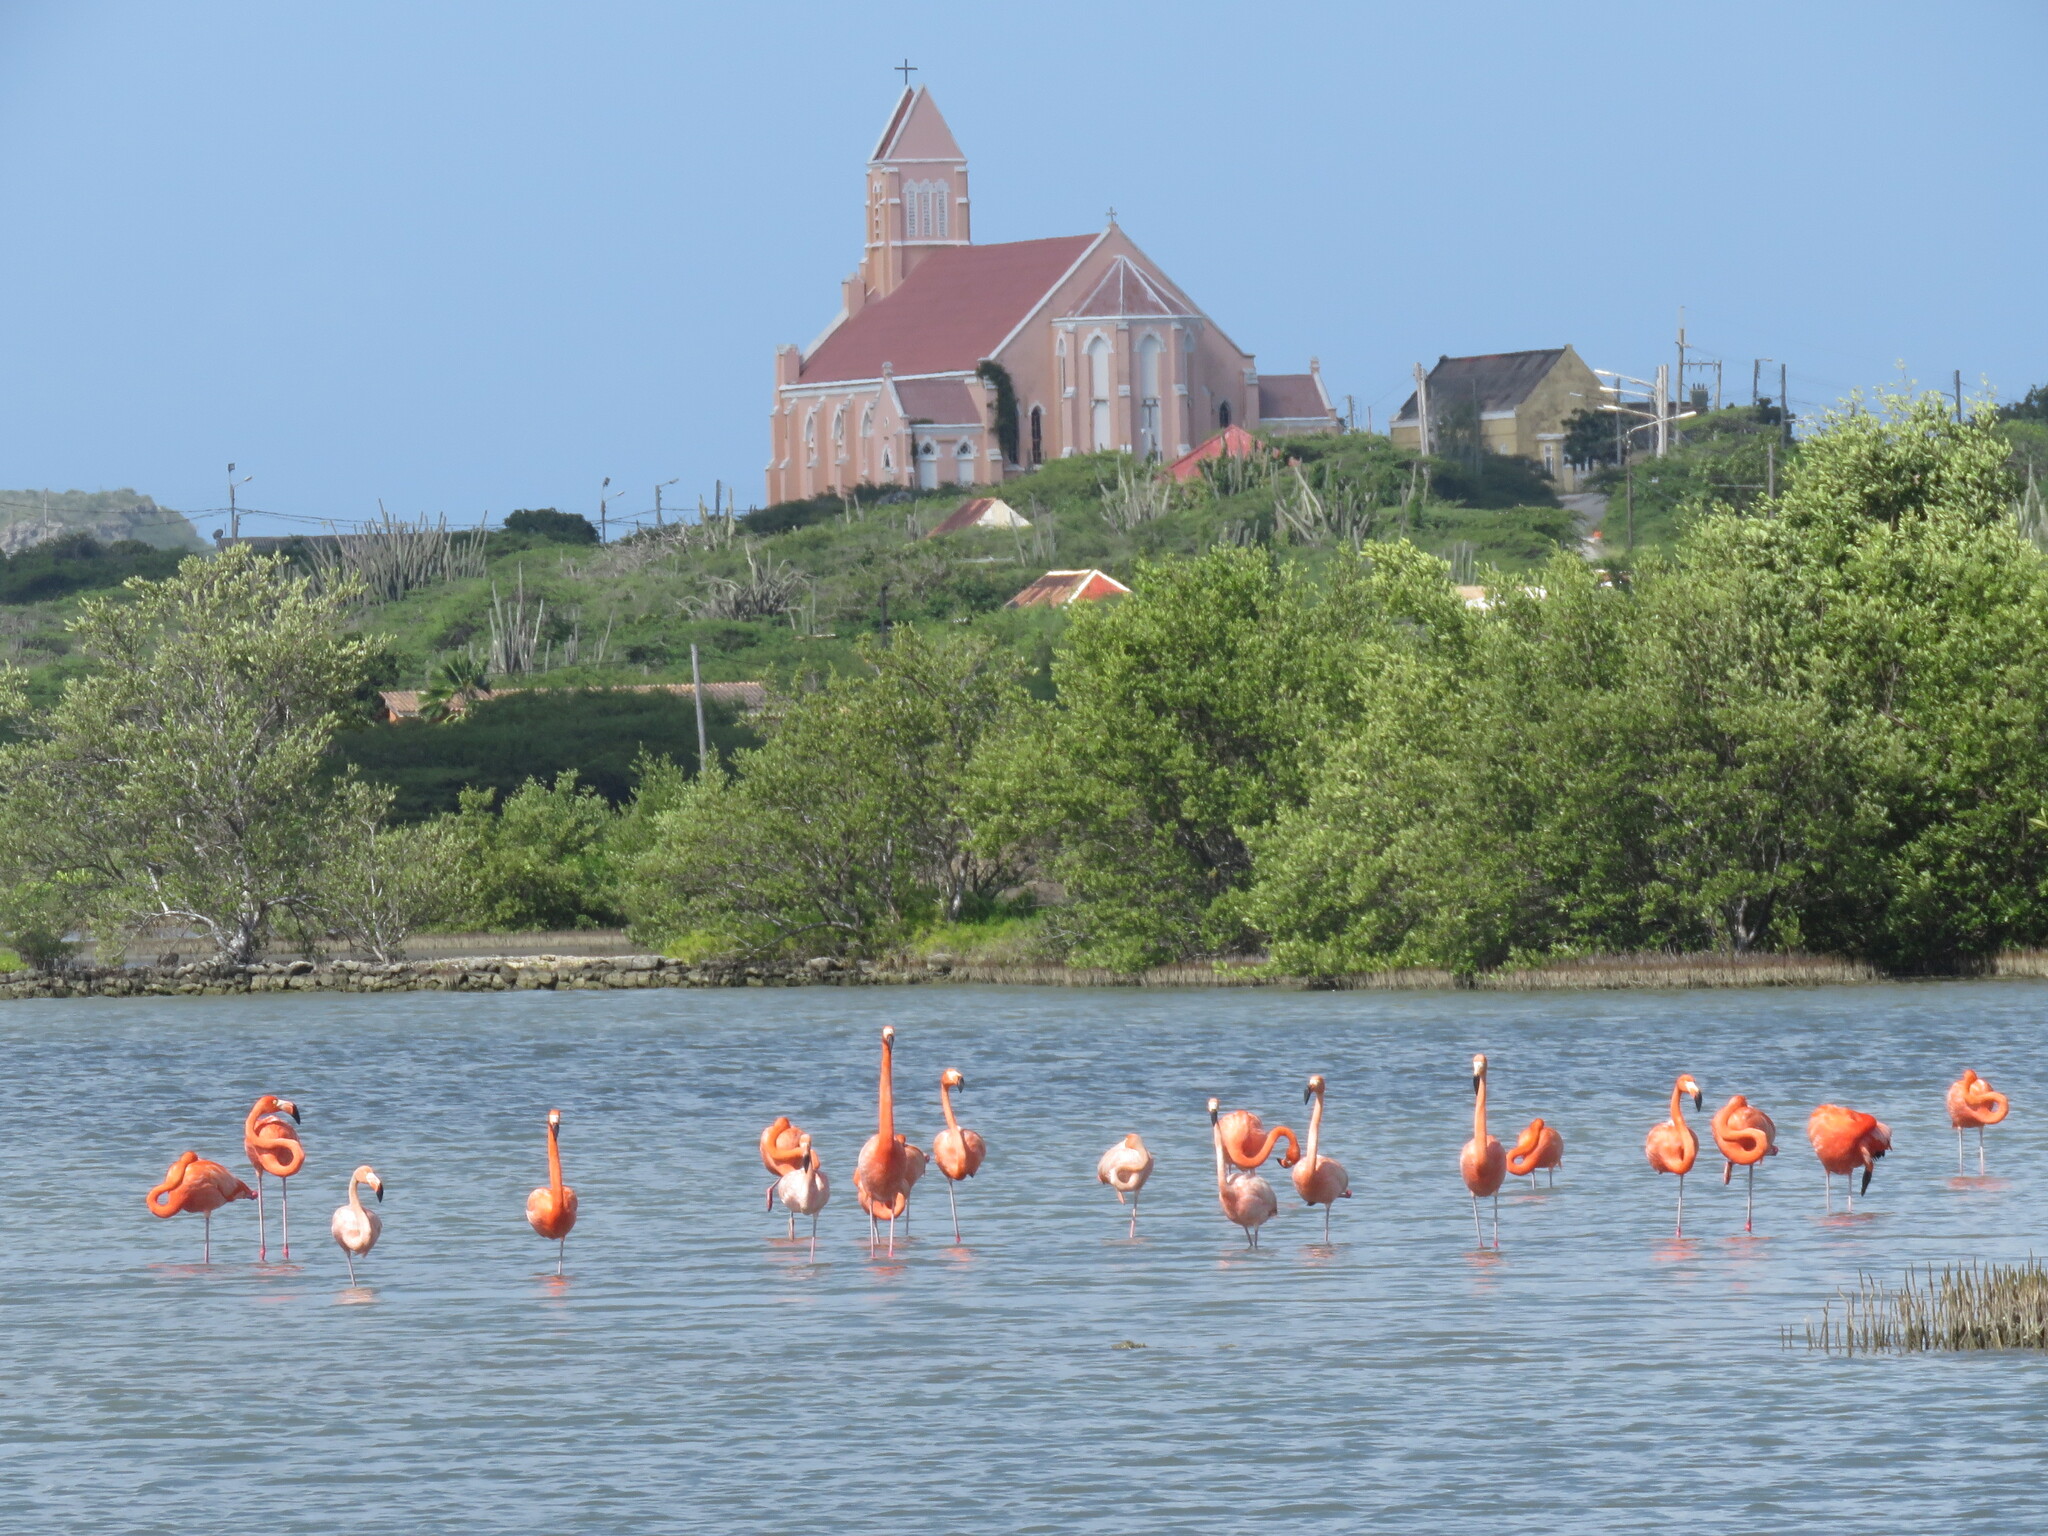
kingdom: Animalia
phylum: Chordata
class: Aves
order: Phoenicopteriformes
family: Phoenicopteridae
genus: Phoenicopterus
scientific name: Phoenicopterus ruber
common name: American flamingo
